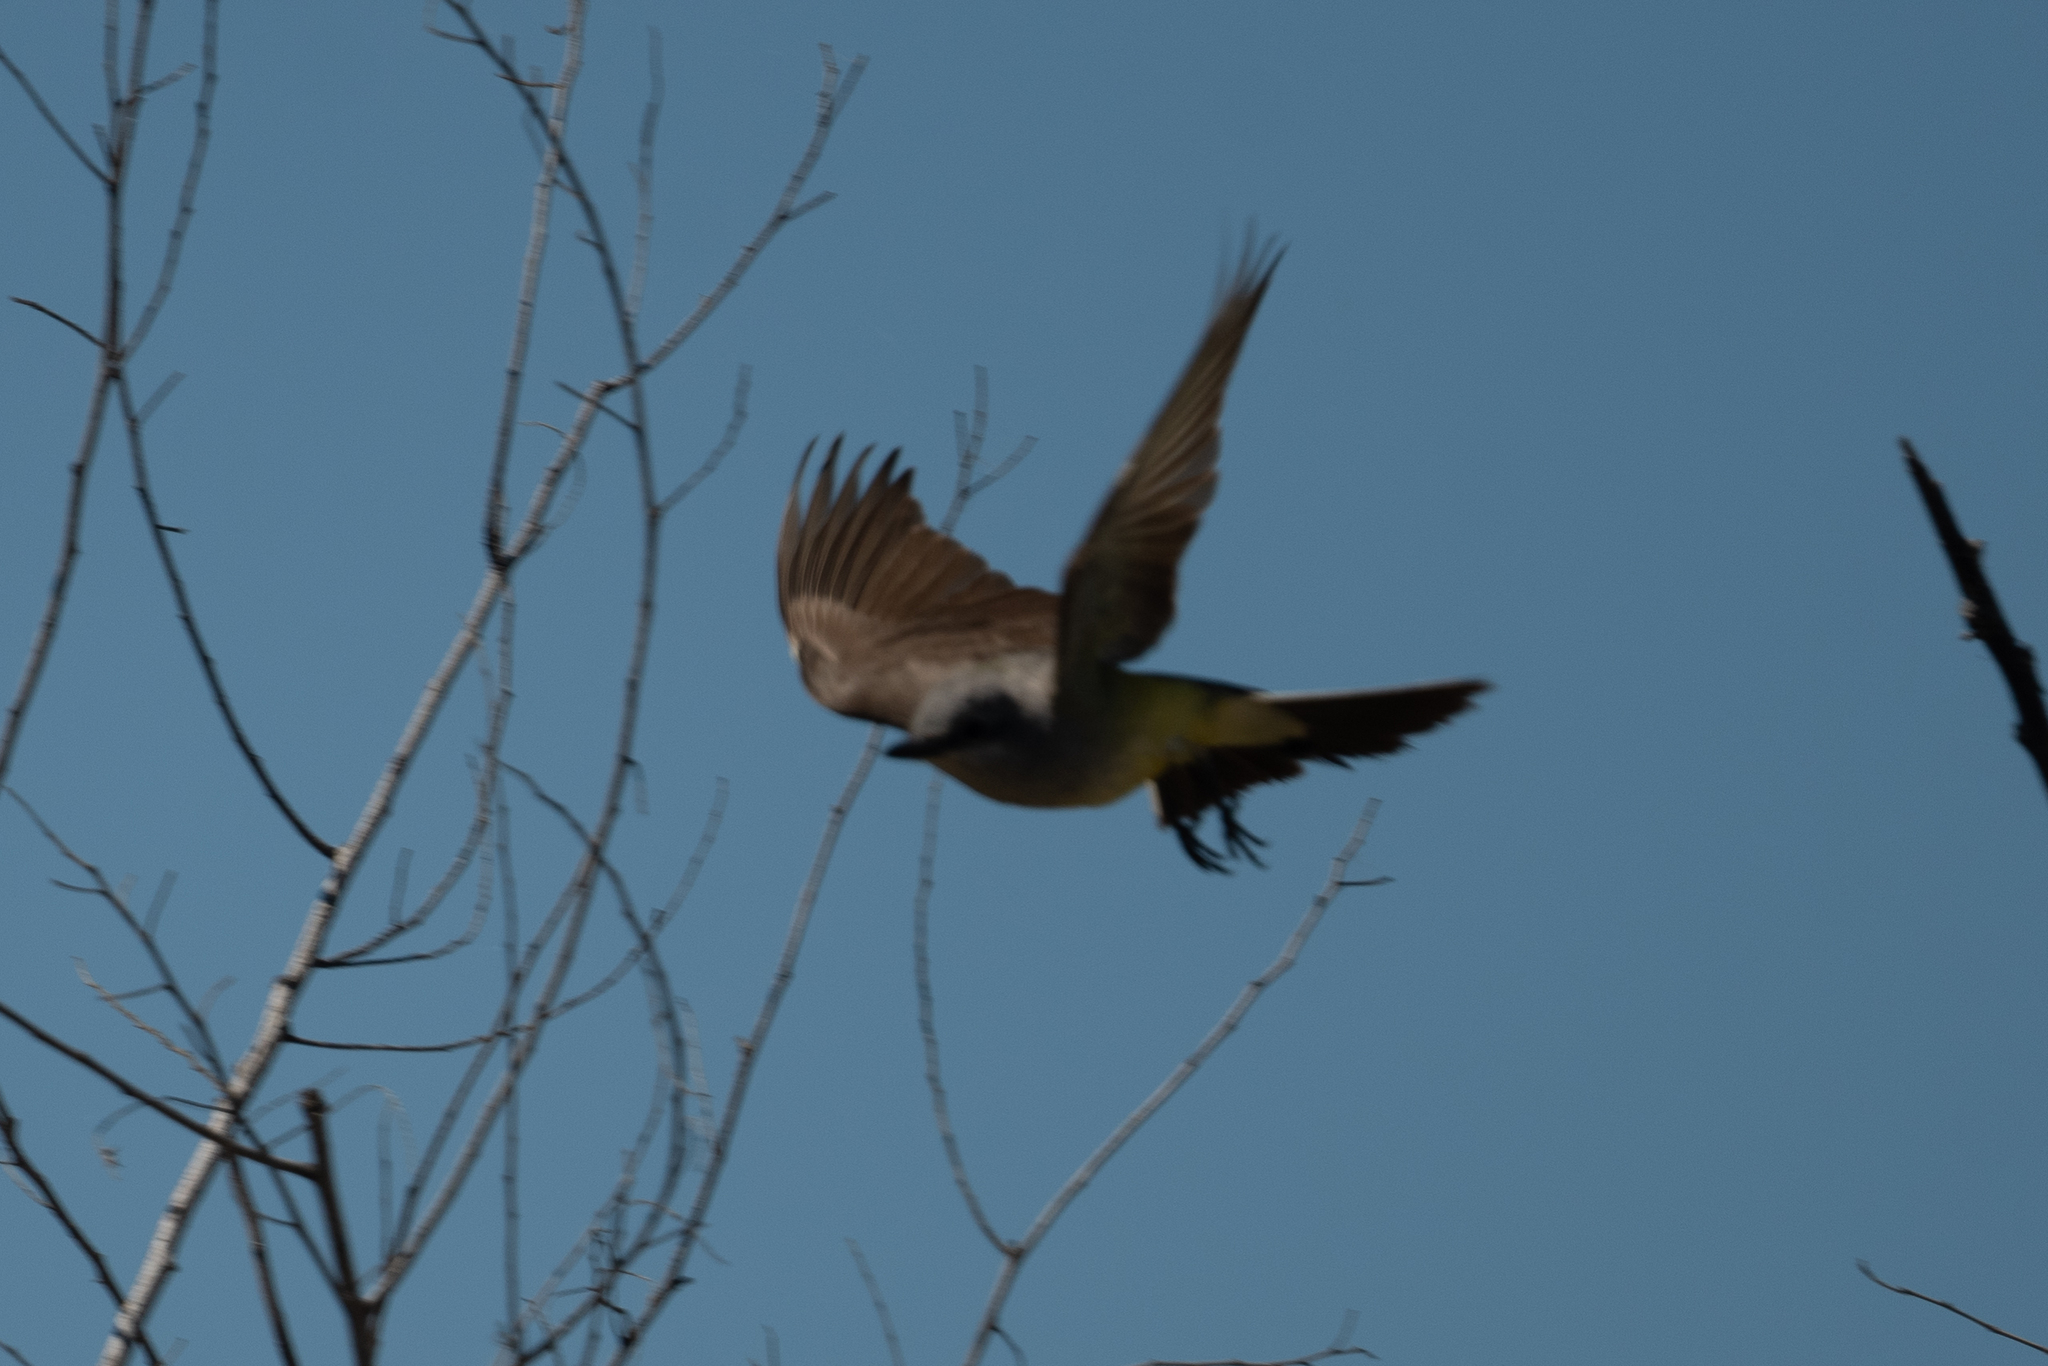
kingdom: Animalia
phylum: Chordata
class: Aves
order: Passeriformes
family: Tyrannidae
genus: Tyrannus
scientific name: Tyrannus verticalis
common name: Western kingbird
